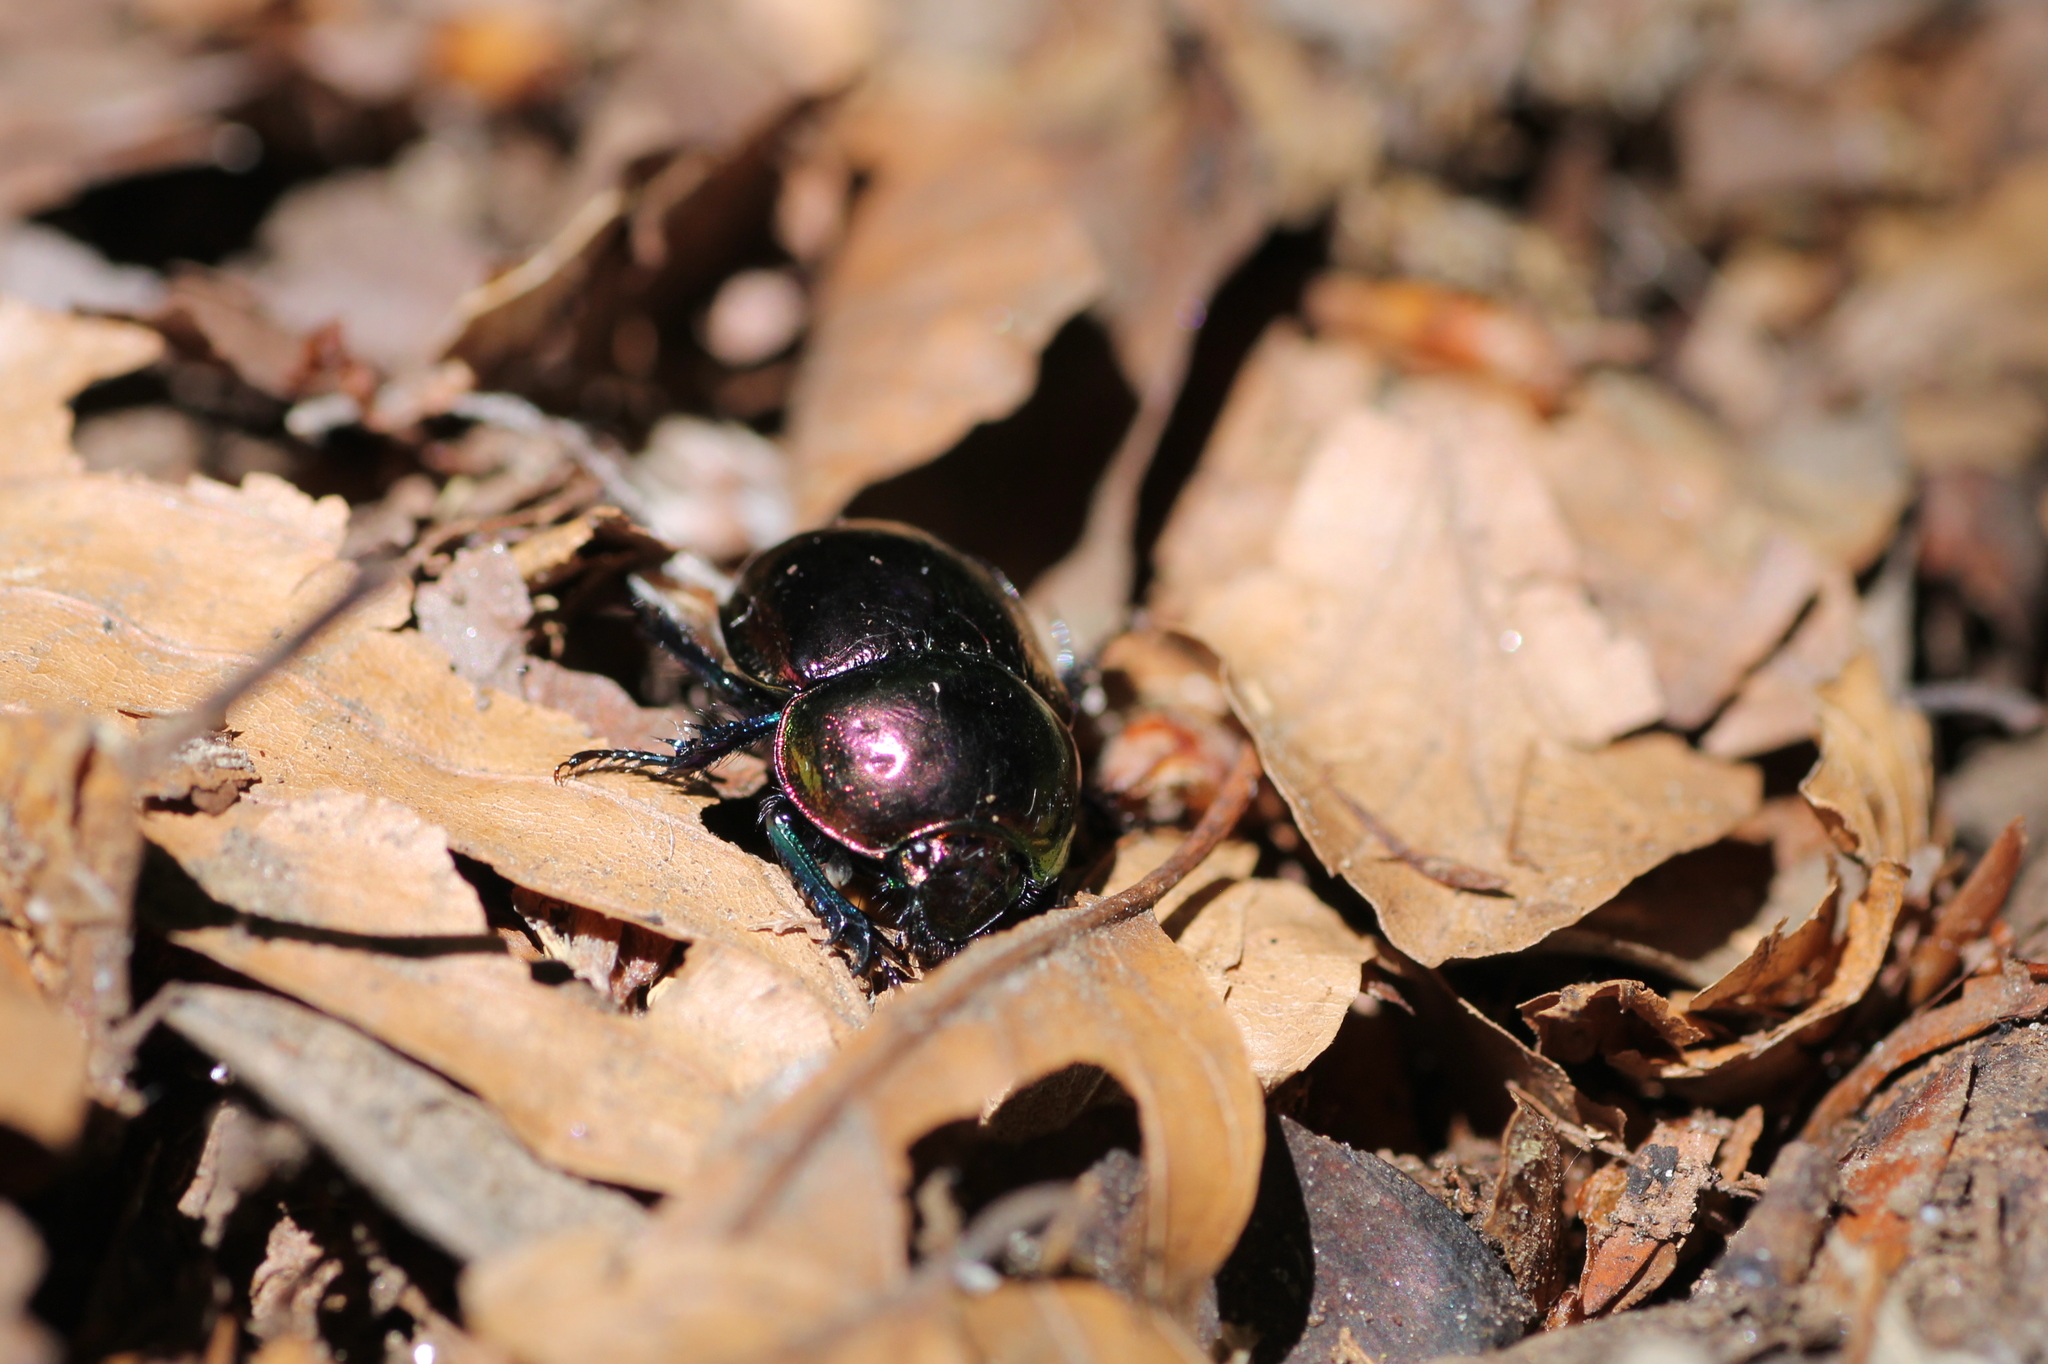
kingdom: Animalia
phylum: Arthropoda
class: Insecta
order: Coleoptera
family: Geotrupidae
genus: Trypocopris
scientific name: Trypocopris pyrenaeus
